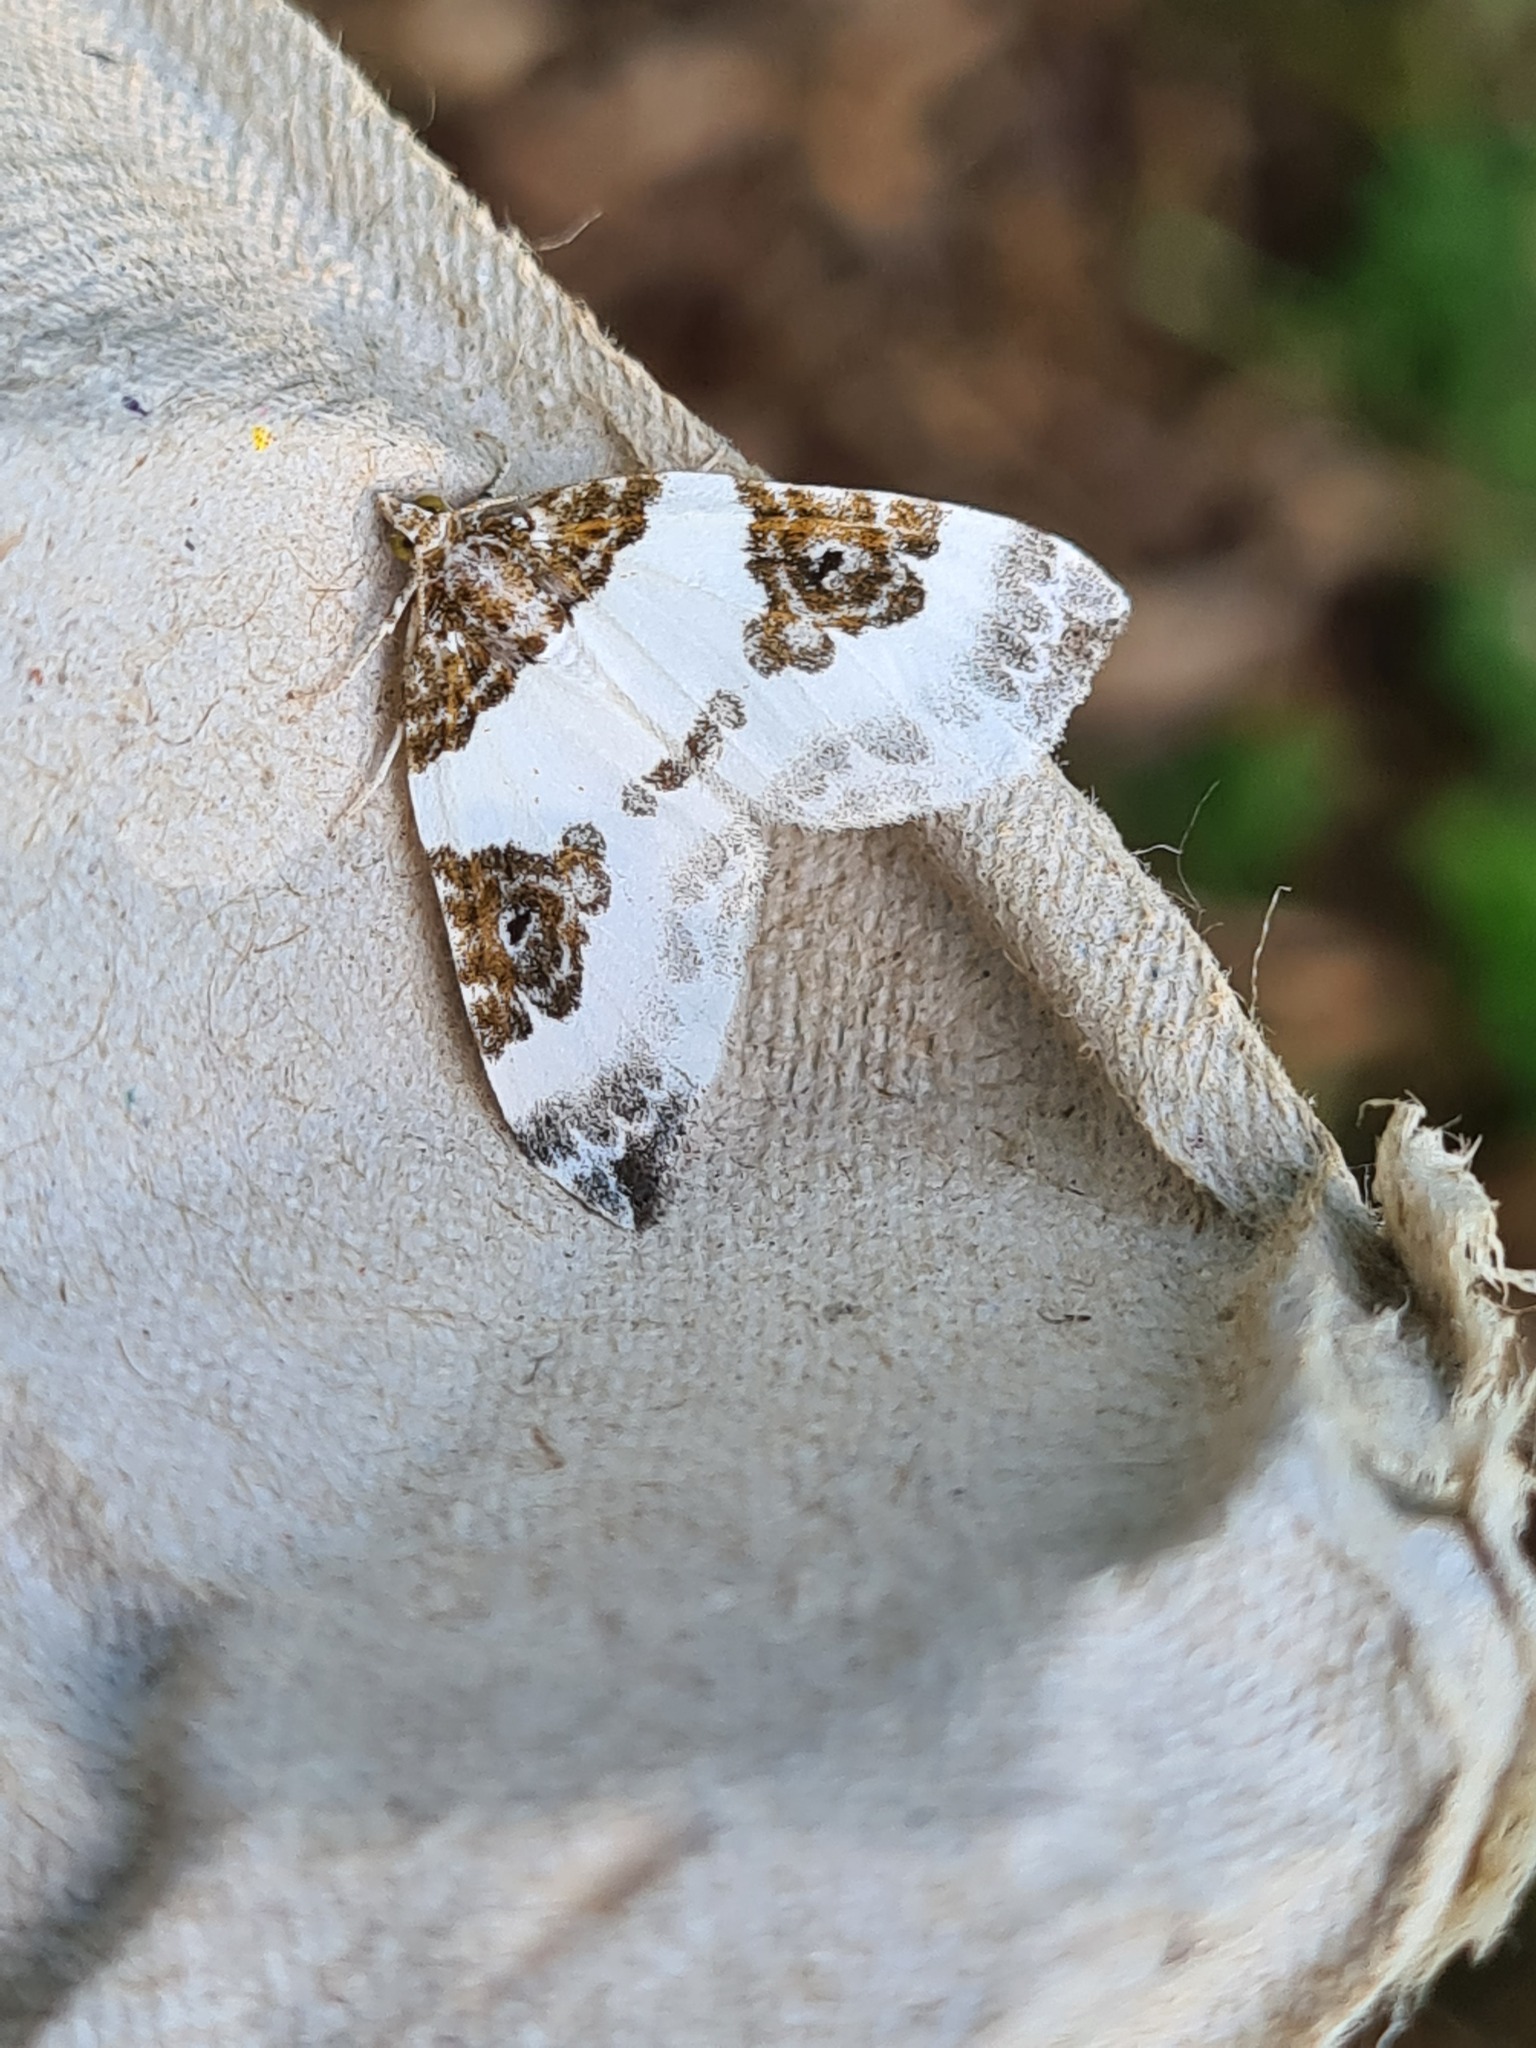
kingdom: Animalia
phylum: Arthropoda
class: Insecta
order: Lepidoptera
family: Geometridae
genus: Plemyria
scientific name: Plemyria rubiginata
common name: Blue-bordered carpet
